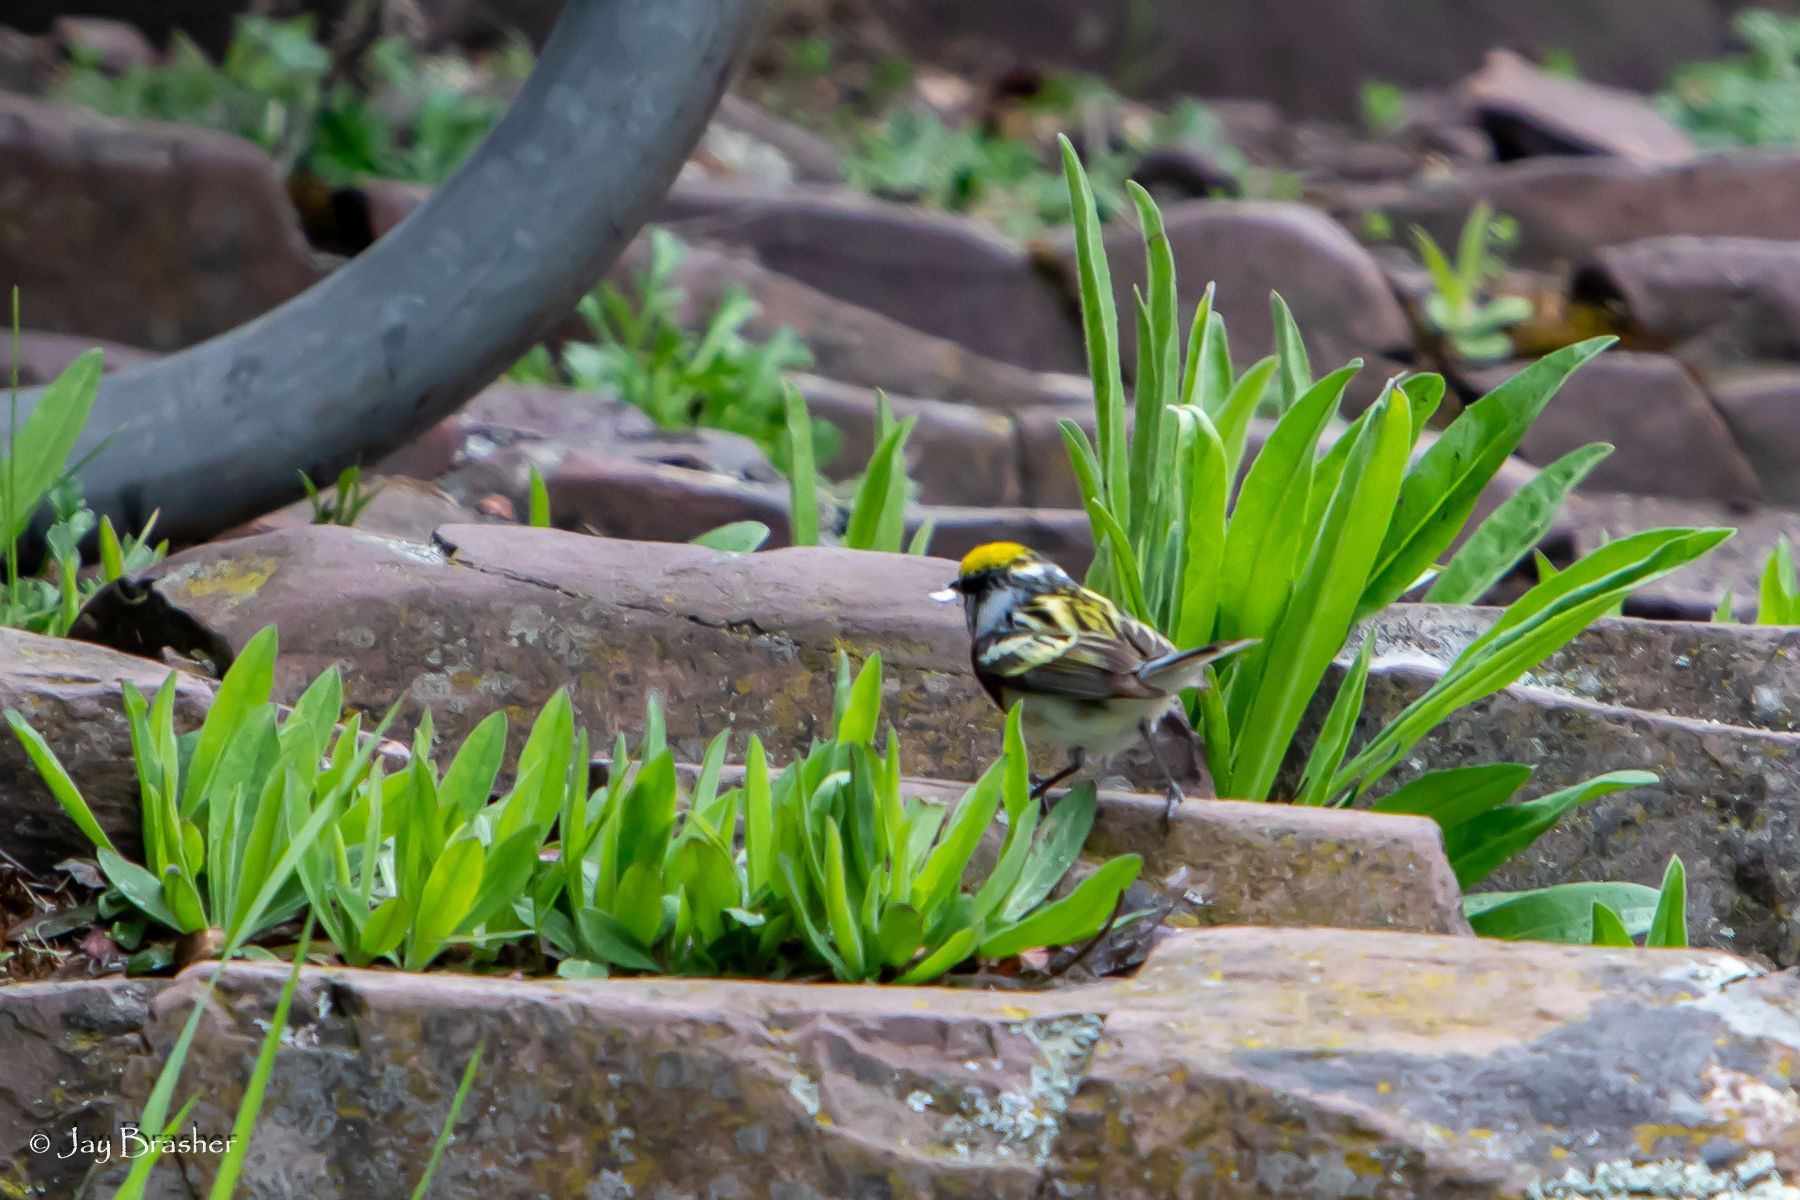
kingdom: Animalia
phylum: Chordata
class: Aves
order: Passeriformes
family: Parulidae
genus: Setophaga
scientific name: Setophaga pensylvanica
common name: Chestnut-sided warbler
